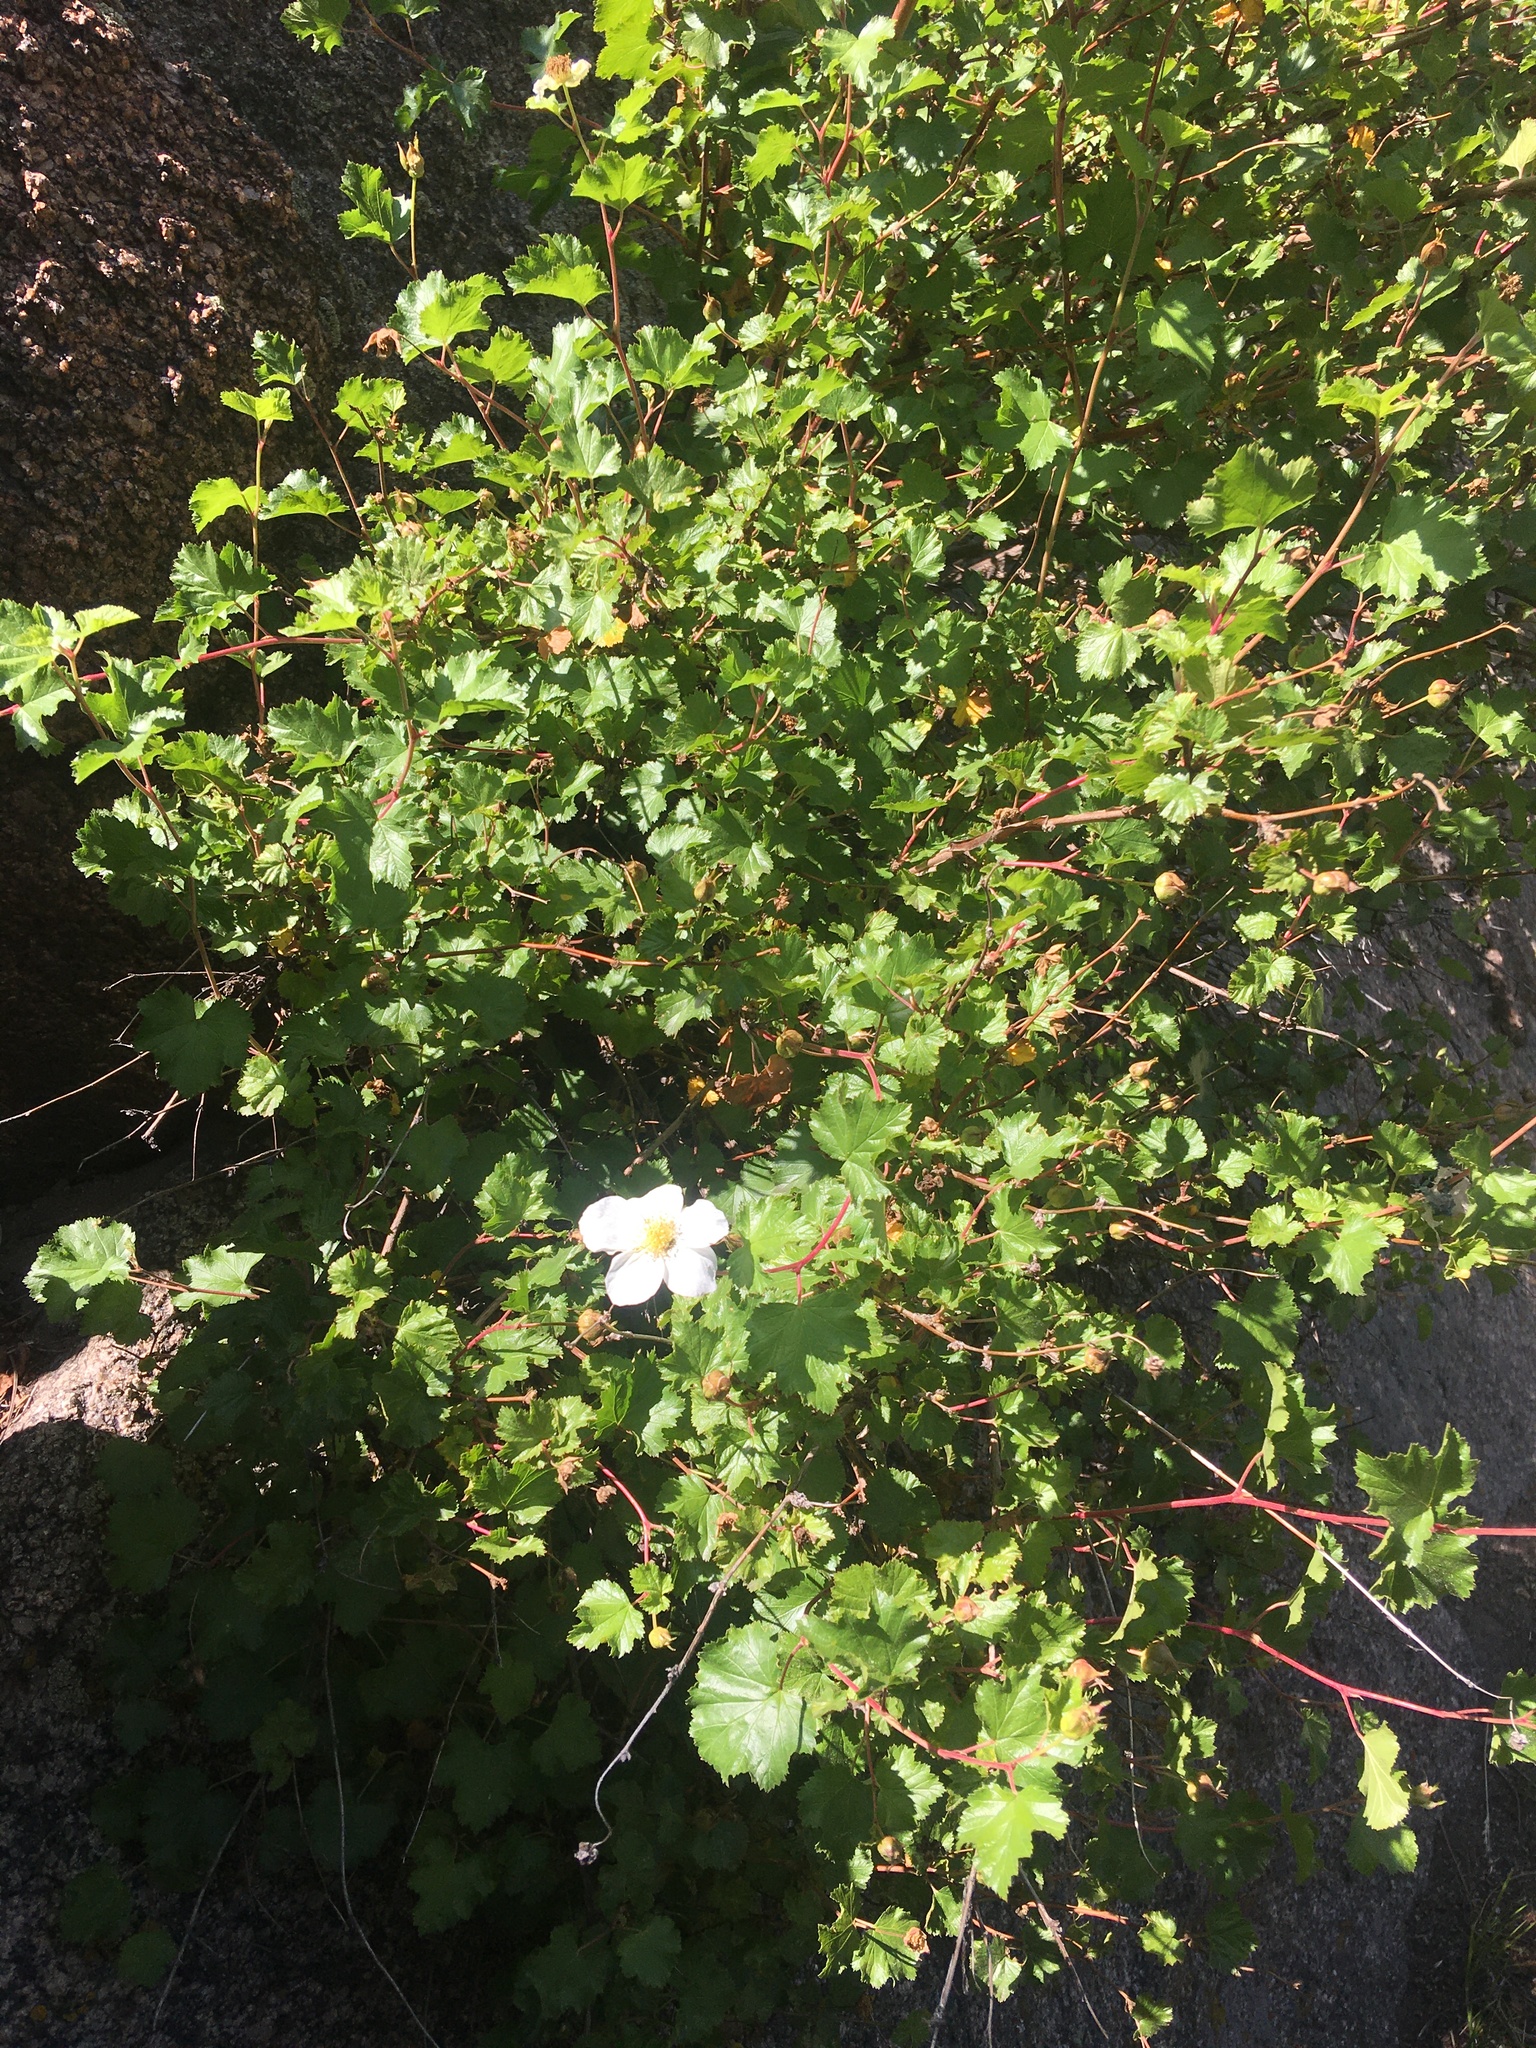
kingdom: Plantae
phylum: Tracheophyta
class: Magnoliopsida
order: Rosales
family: Rosaceae
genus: Rubus
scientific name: Rubus deliciosus
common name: Rocky mountain raspberry
